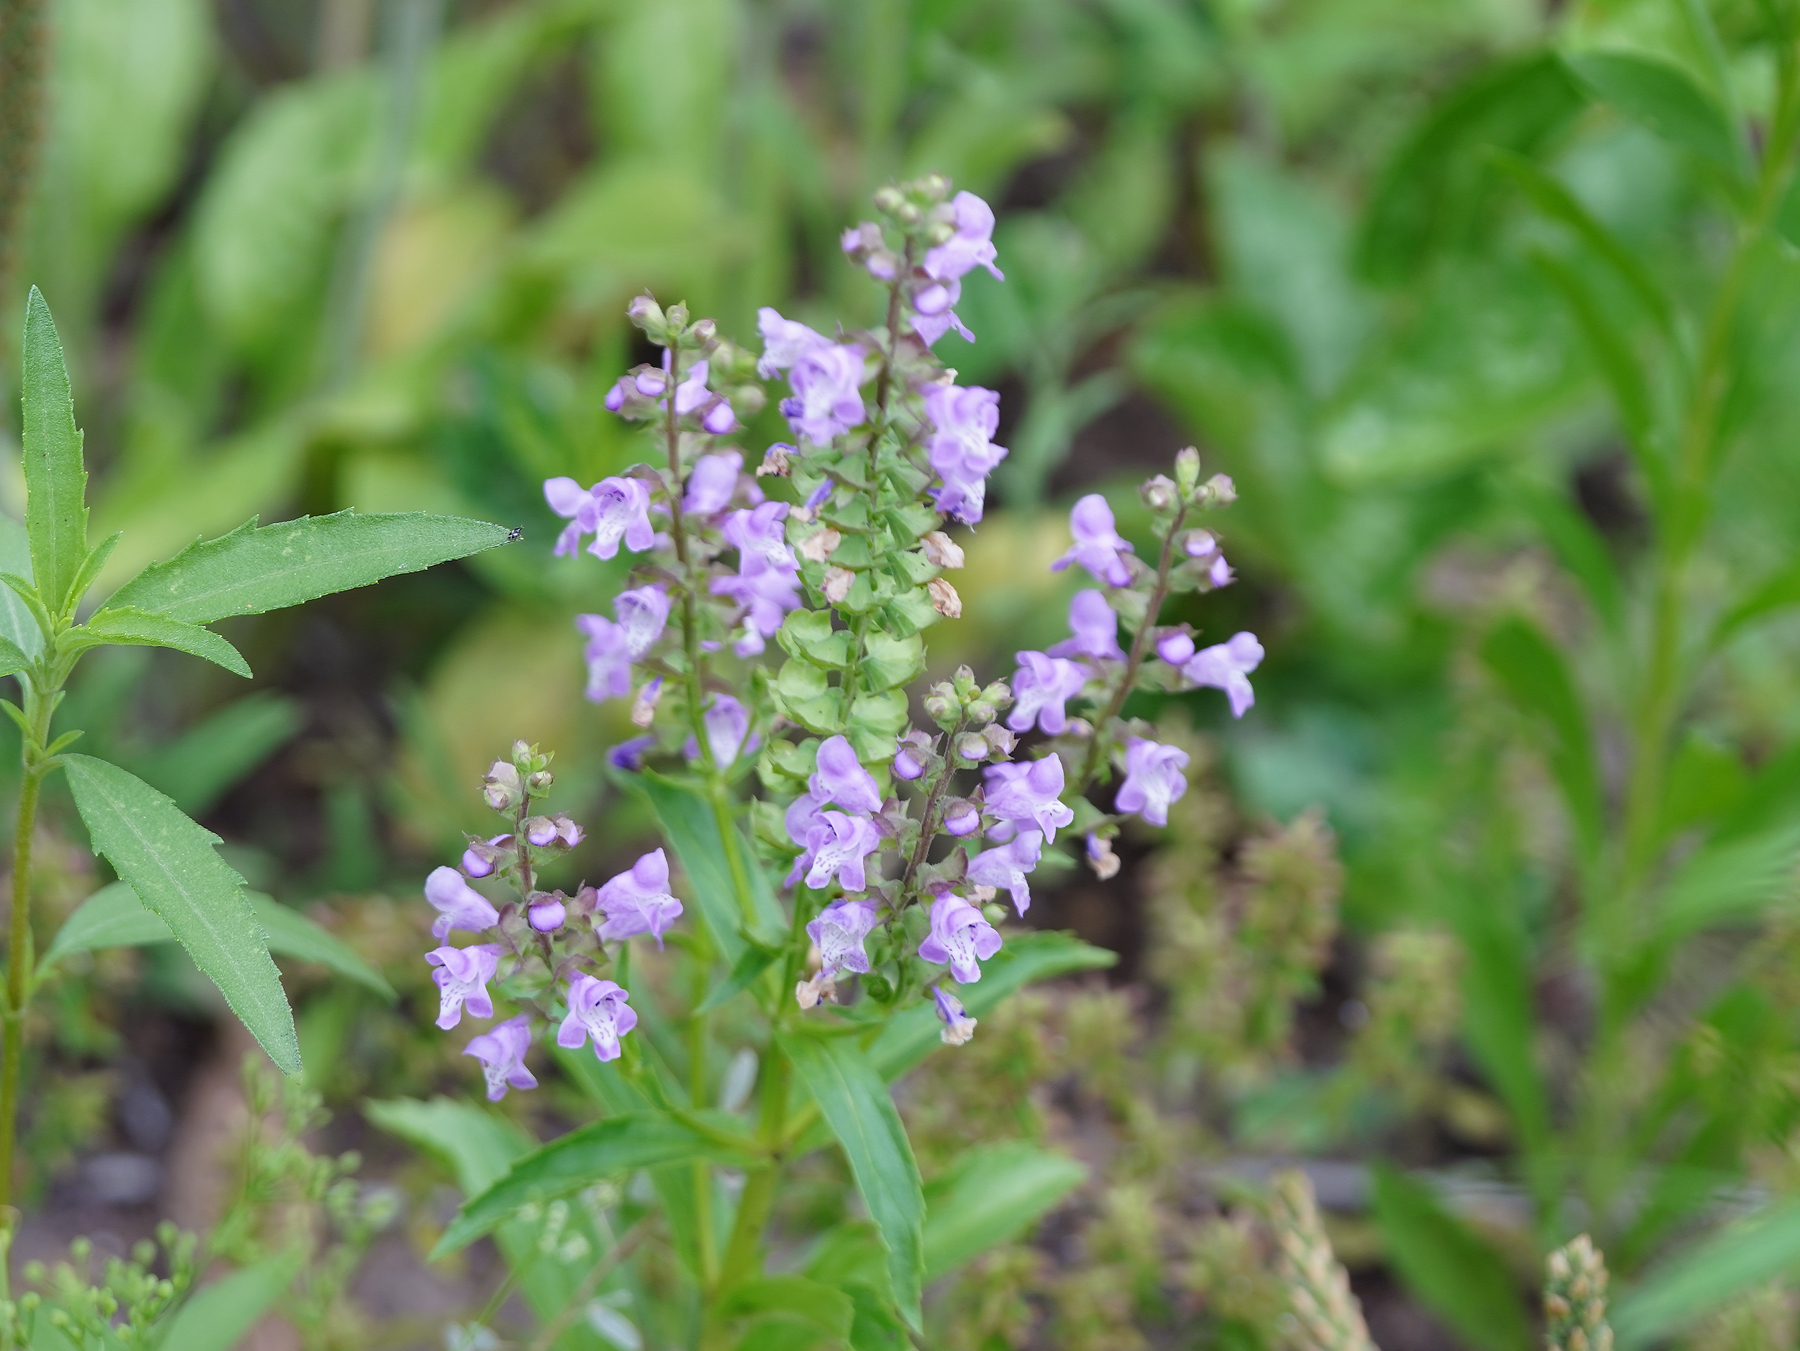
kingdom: Plantae
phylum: Tracheophyta
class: Magnoliopsida
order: Lamiales
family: Lamiaceae
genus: Warnockia
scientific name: Warnockia scutellarioides
